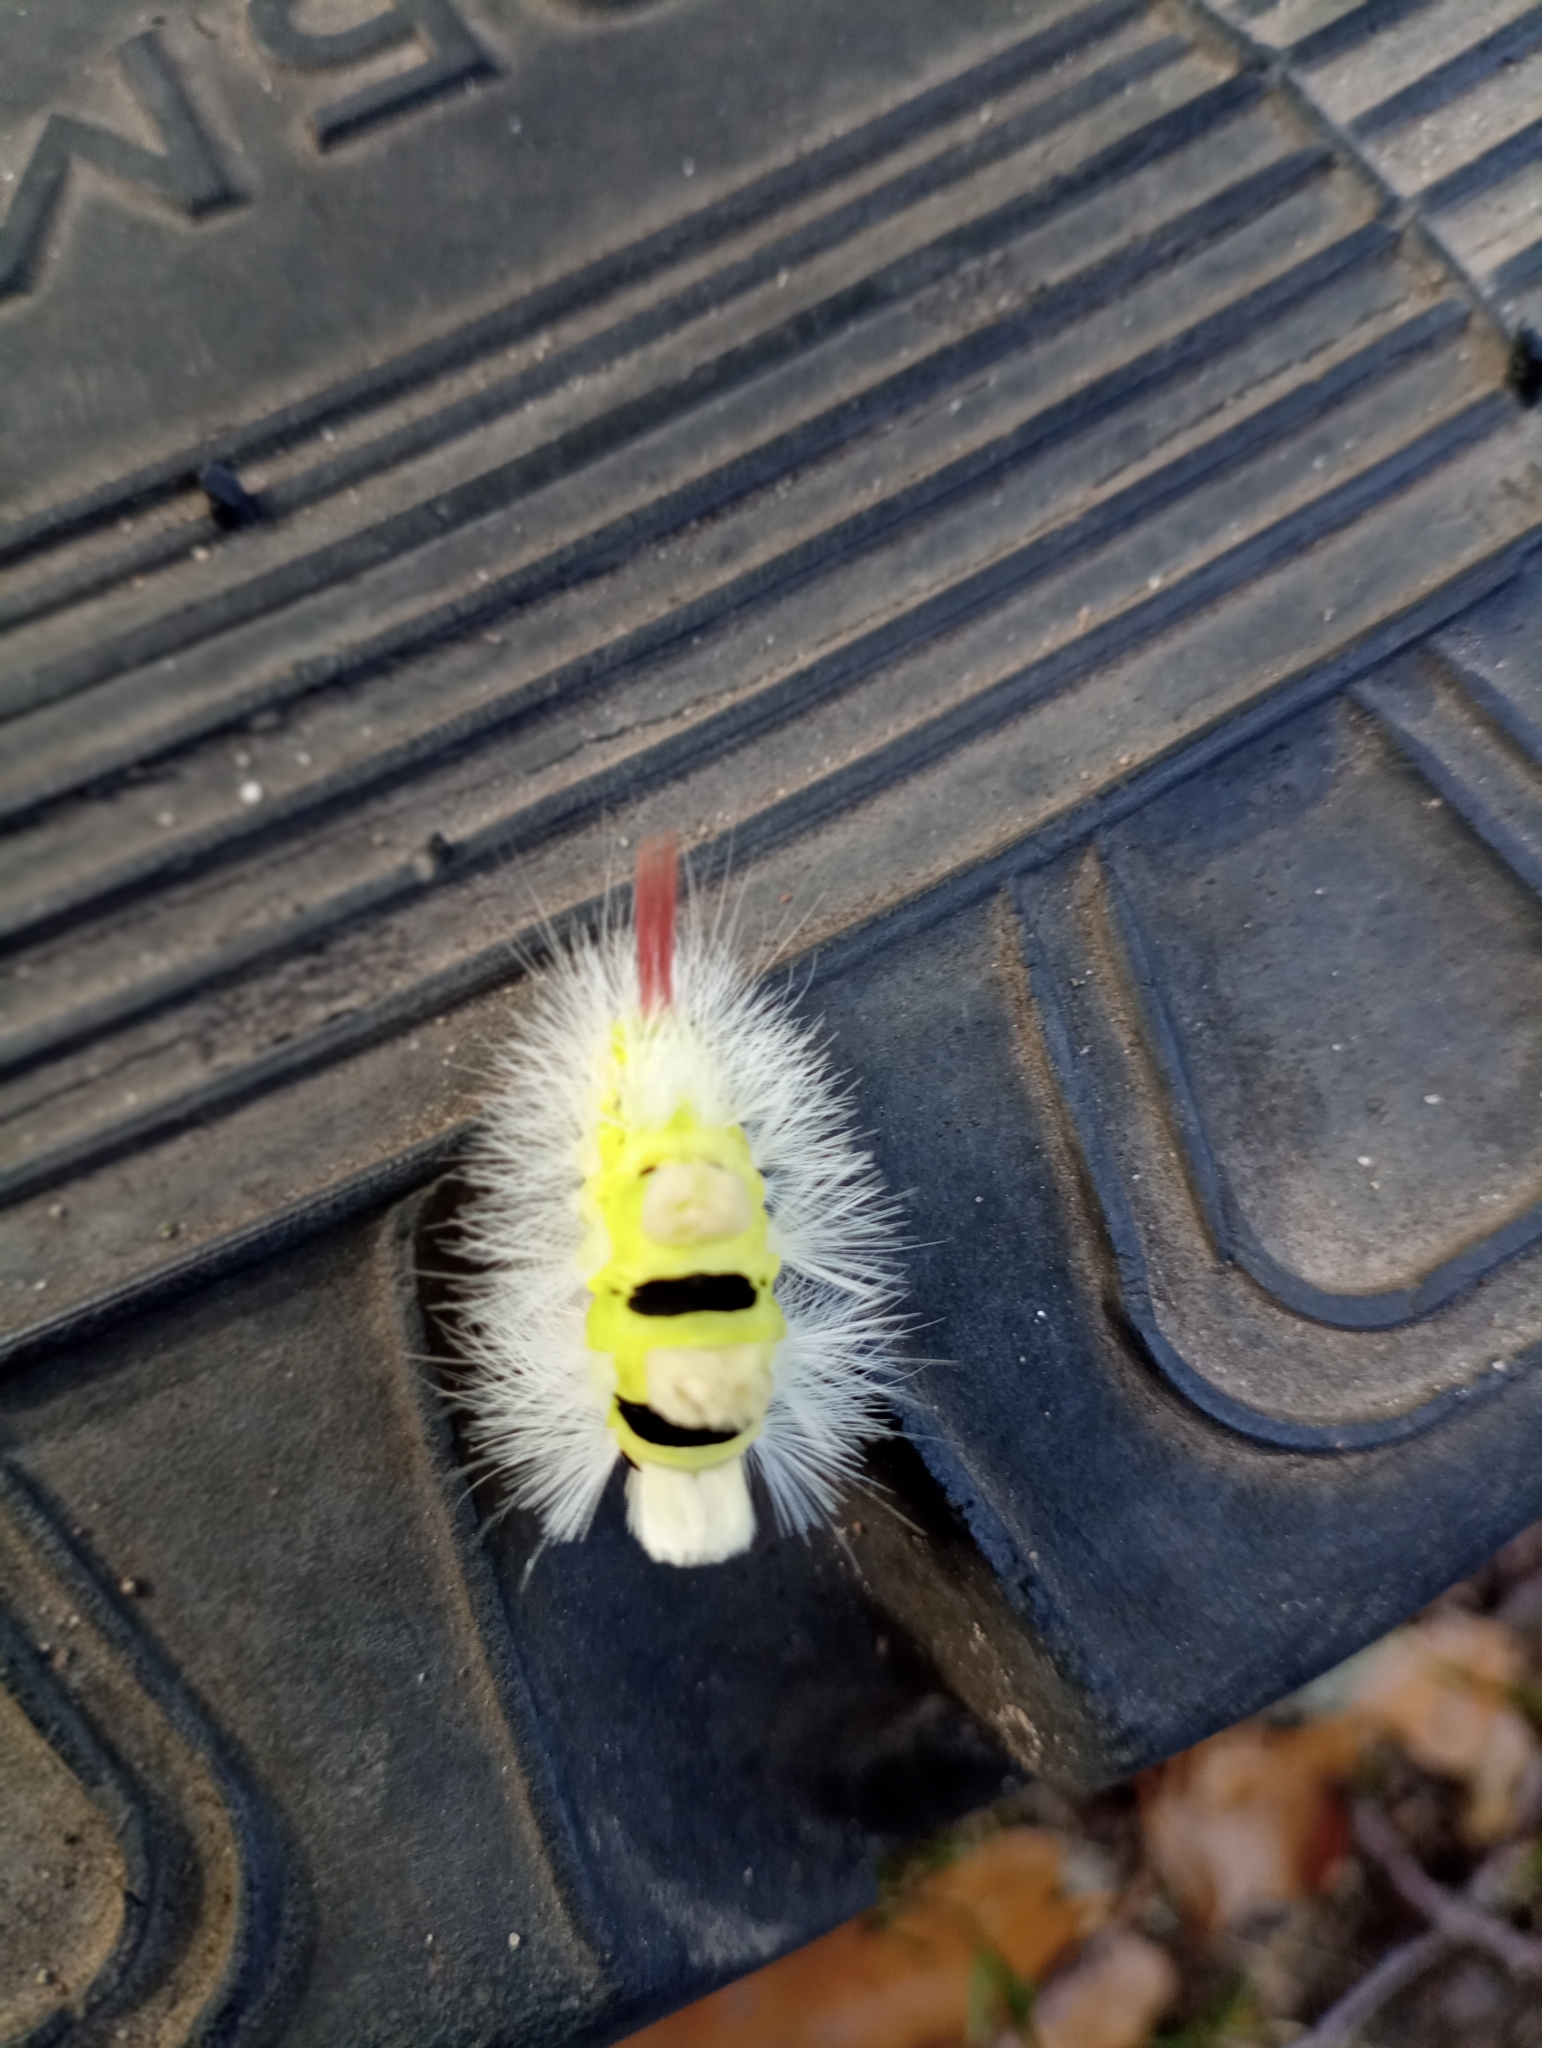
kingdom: Animalia
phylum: Arthropoda
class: Insecta
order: Lepidoptera
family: Erebidae
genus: Calliteara
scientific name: Calliteara pudibunda
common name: Pale tussock
